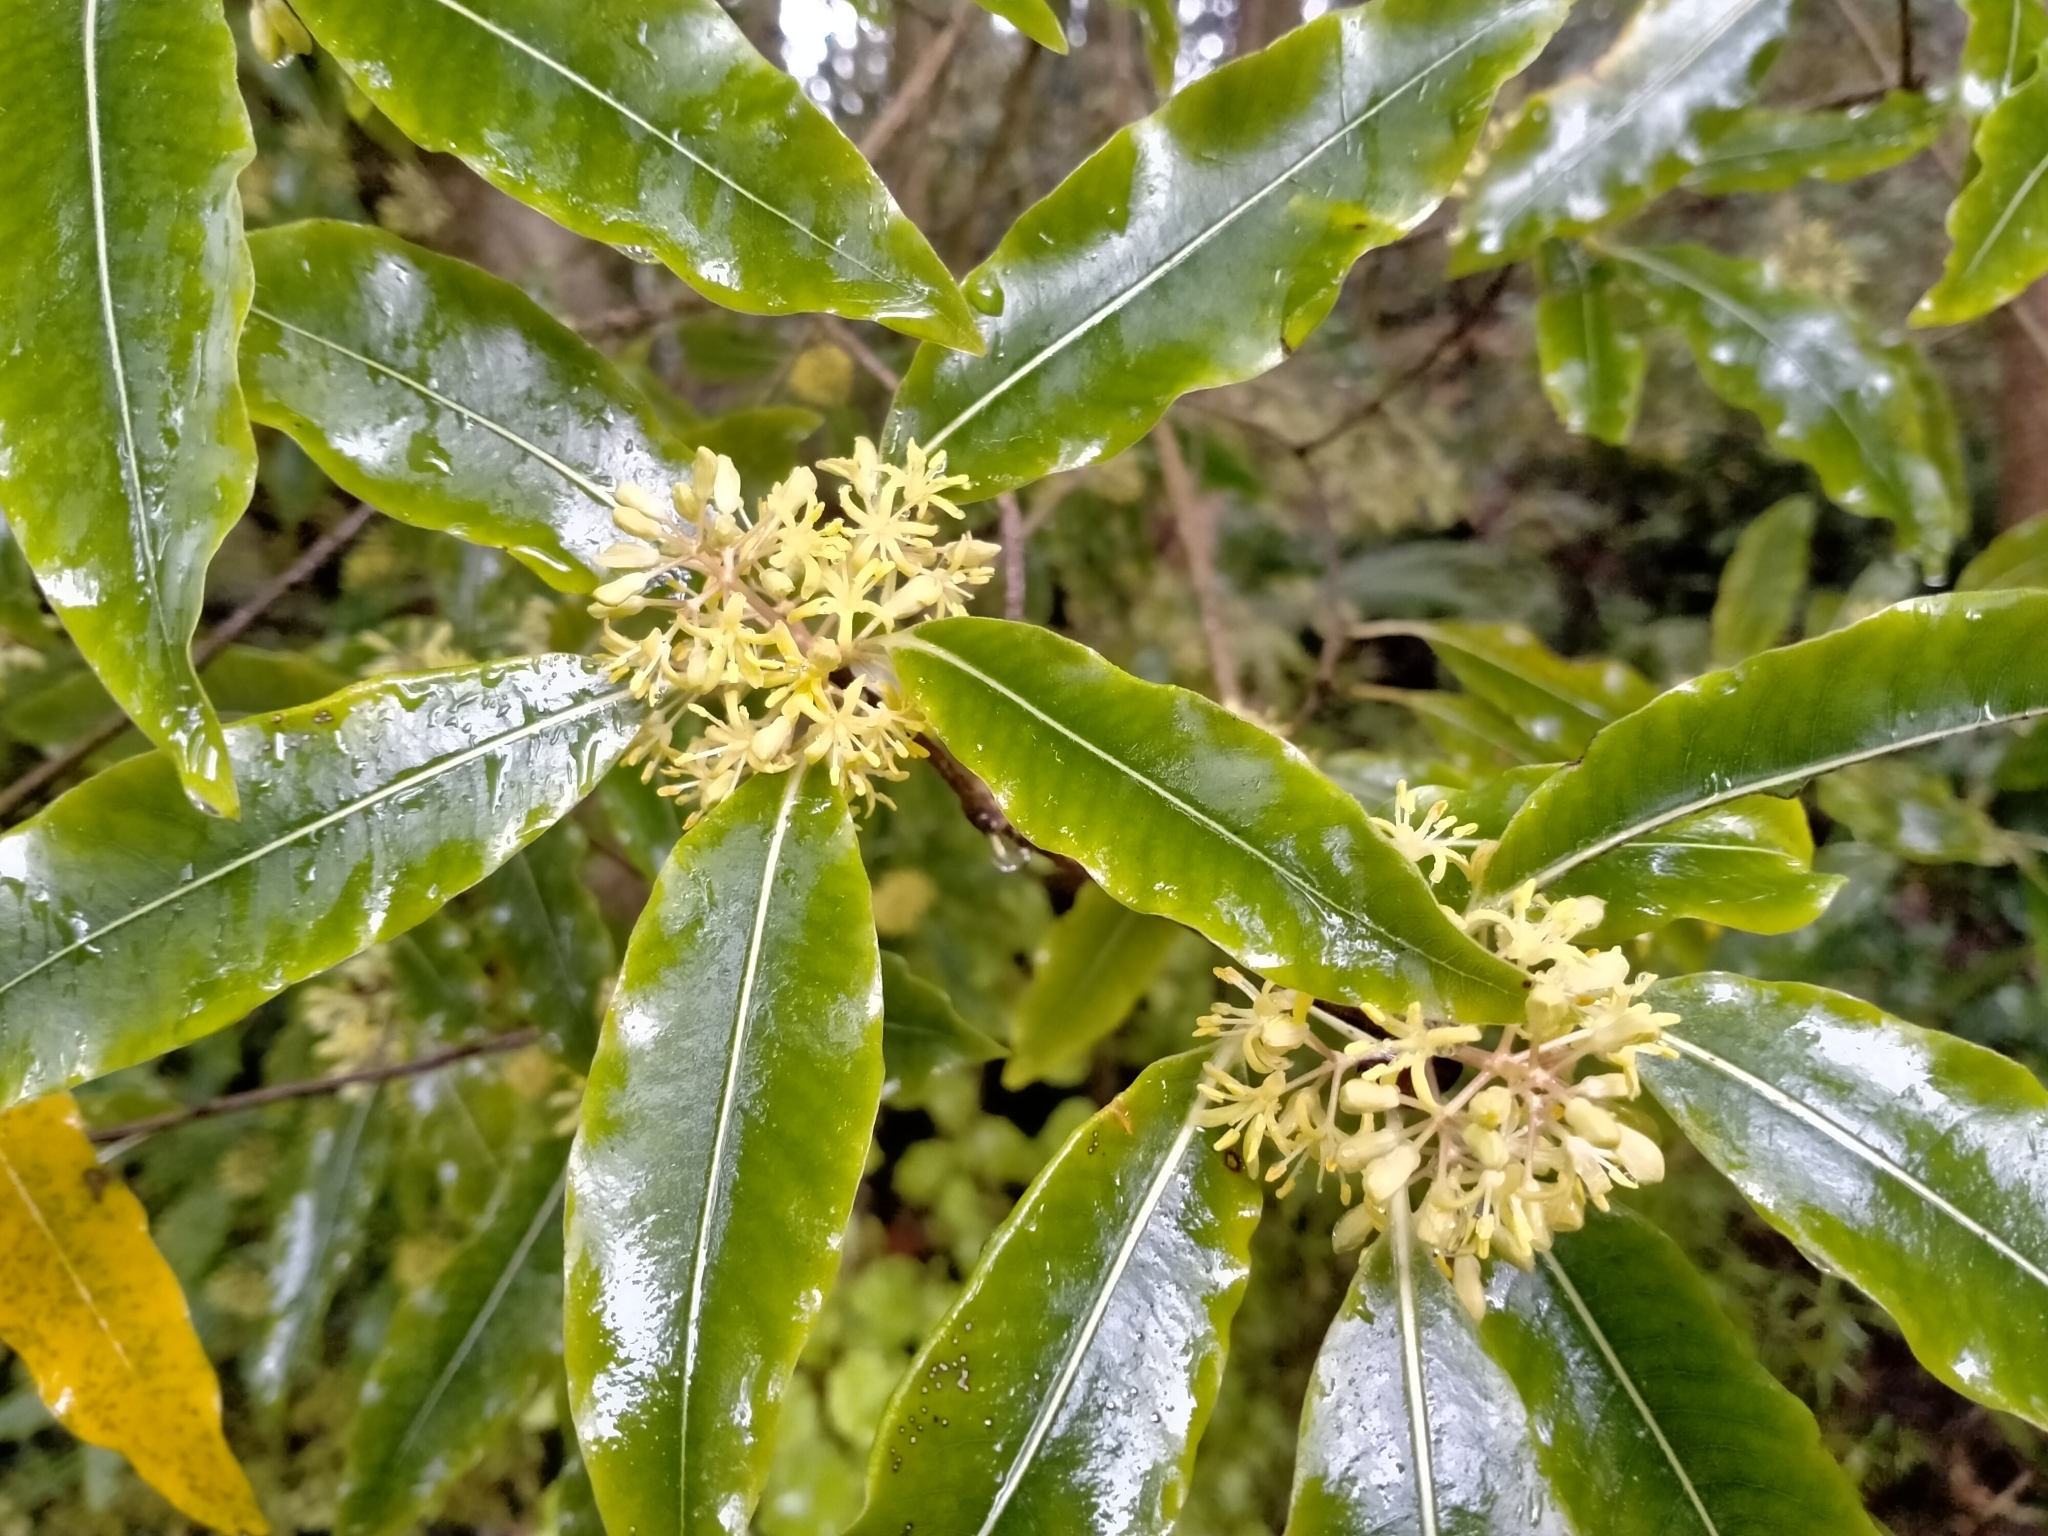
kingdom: Plantae
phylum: Tracheophyta
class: Magnoliopsida
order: Apiales
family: Pittosporaceae
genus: Pittosporum
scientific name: Pittosporum eugenioides
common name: Lemonwood
